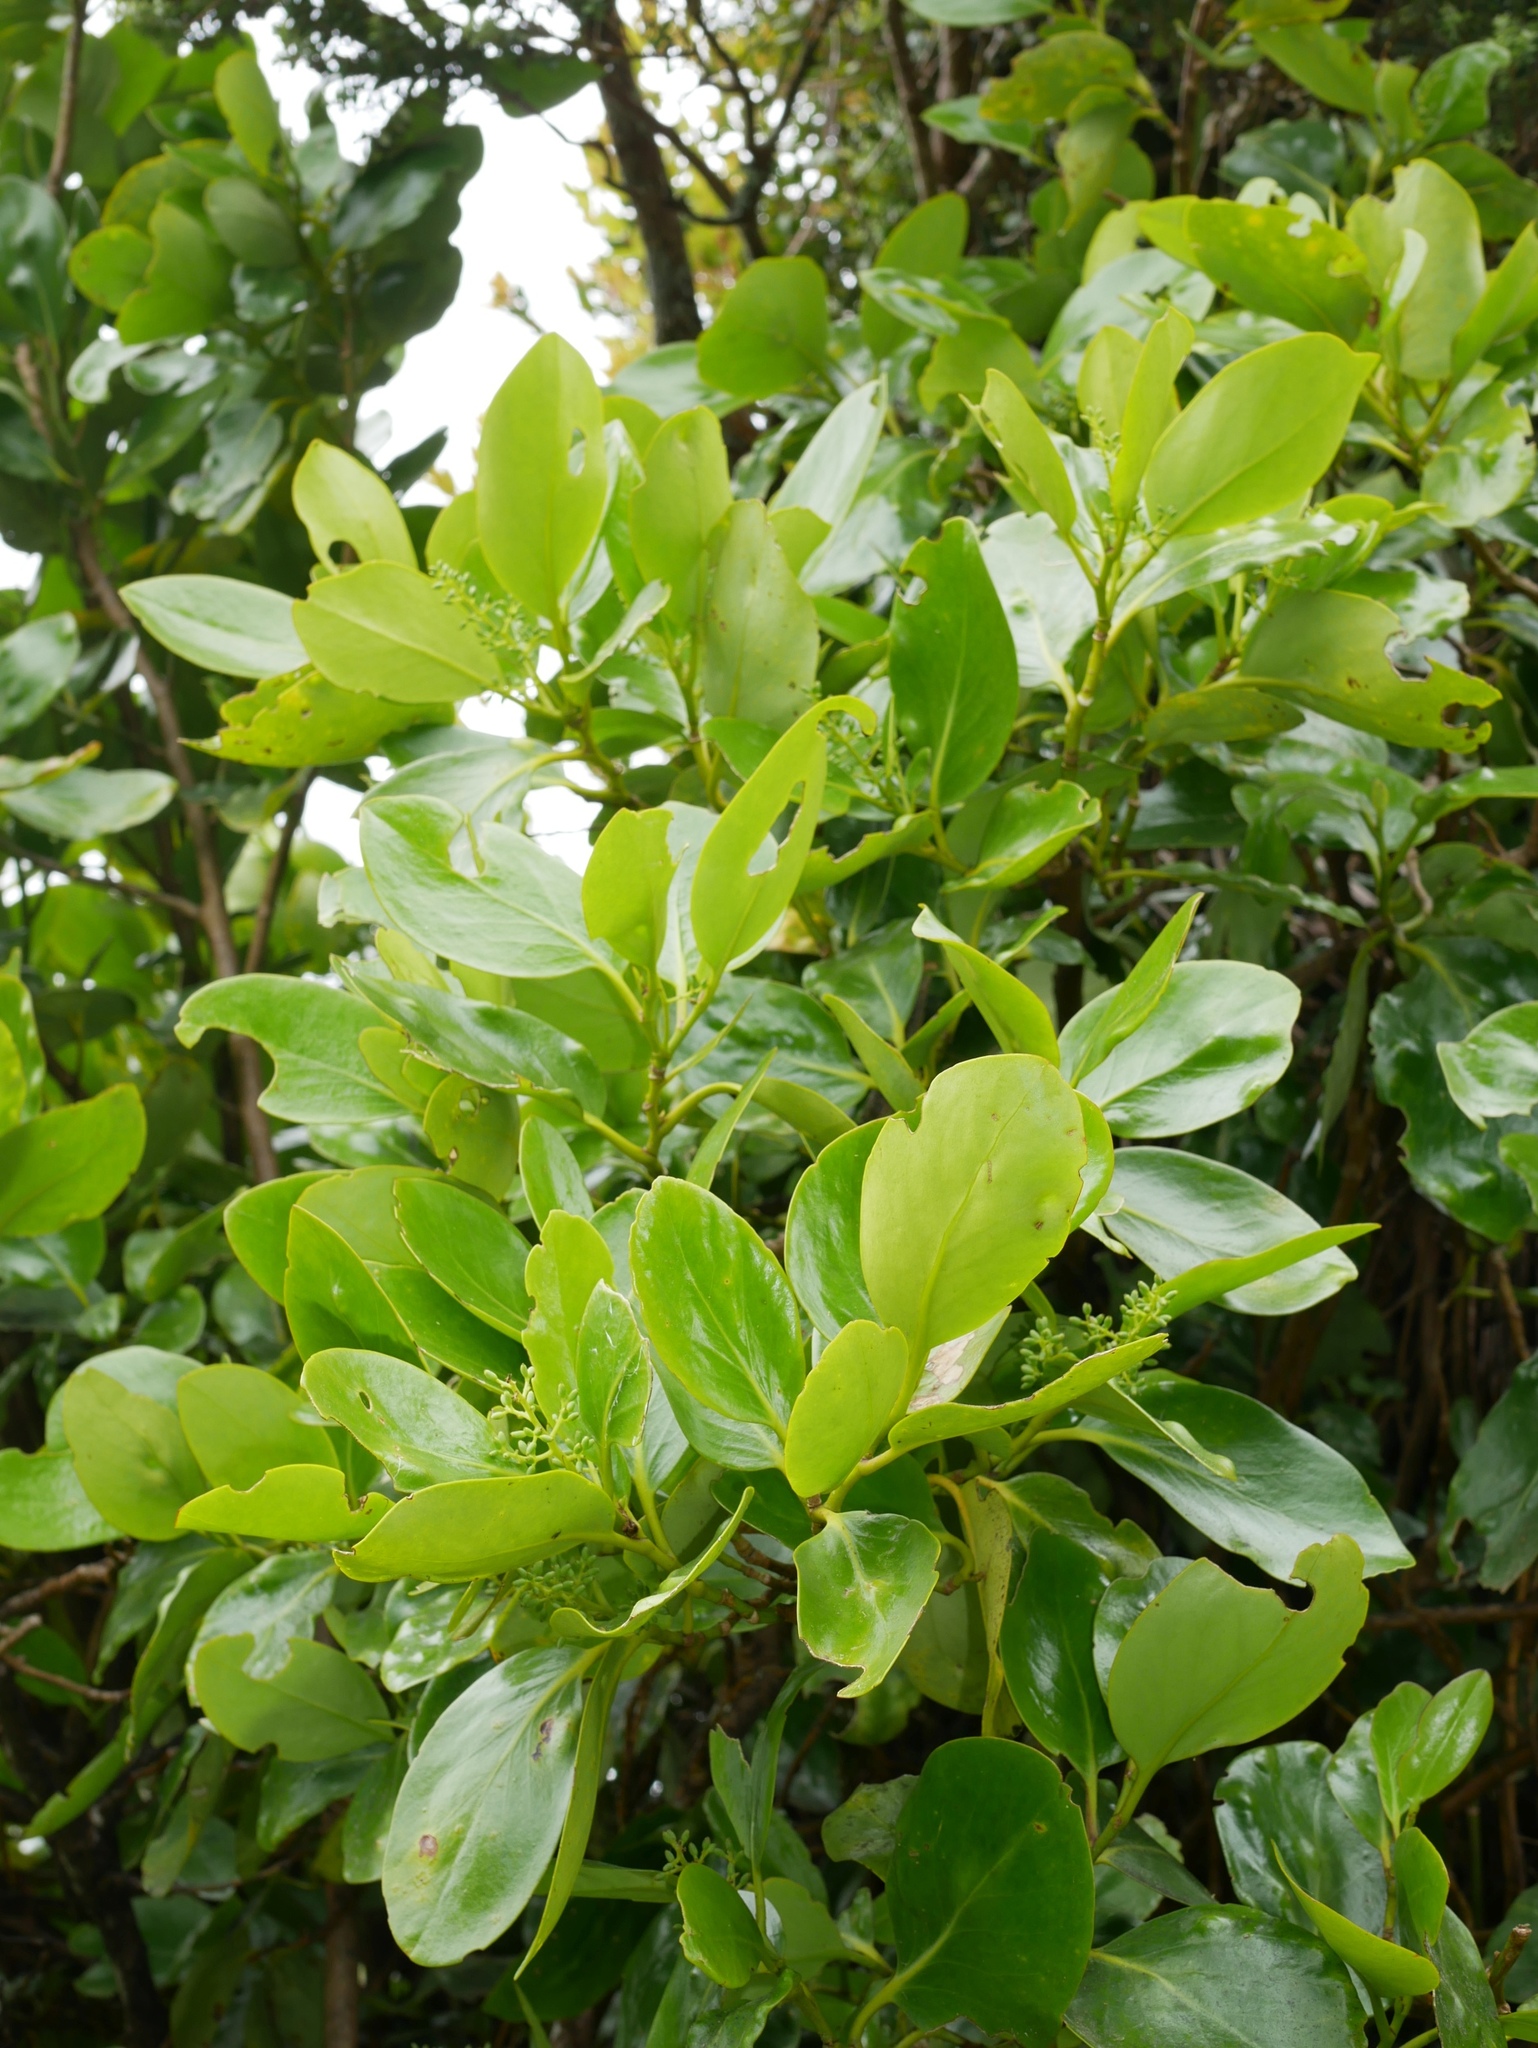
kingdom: Plantae
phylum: Tracheophyta
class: Magnoliopsida
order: Apiales
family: Griseliniaceae
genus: Griselinia
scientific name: Griselinia lucida
